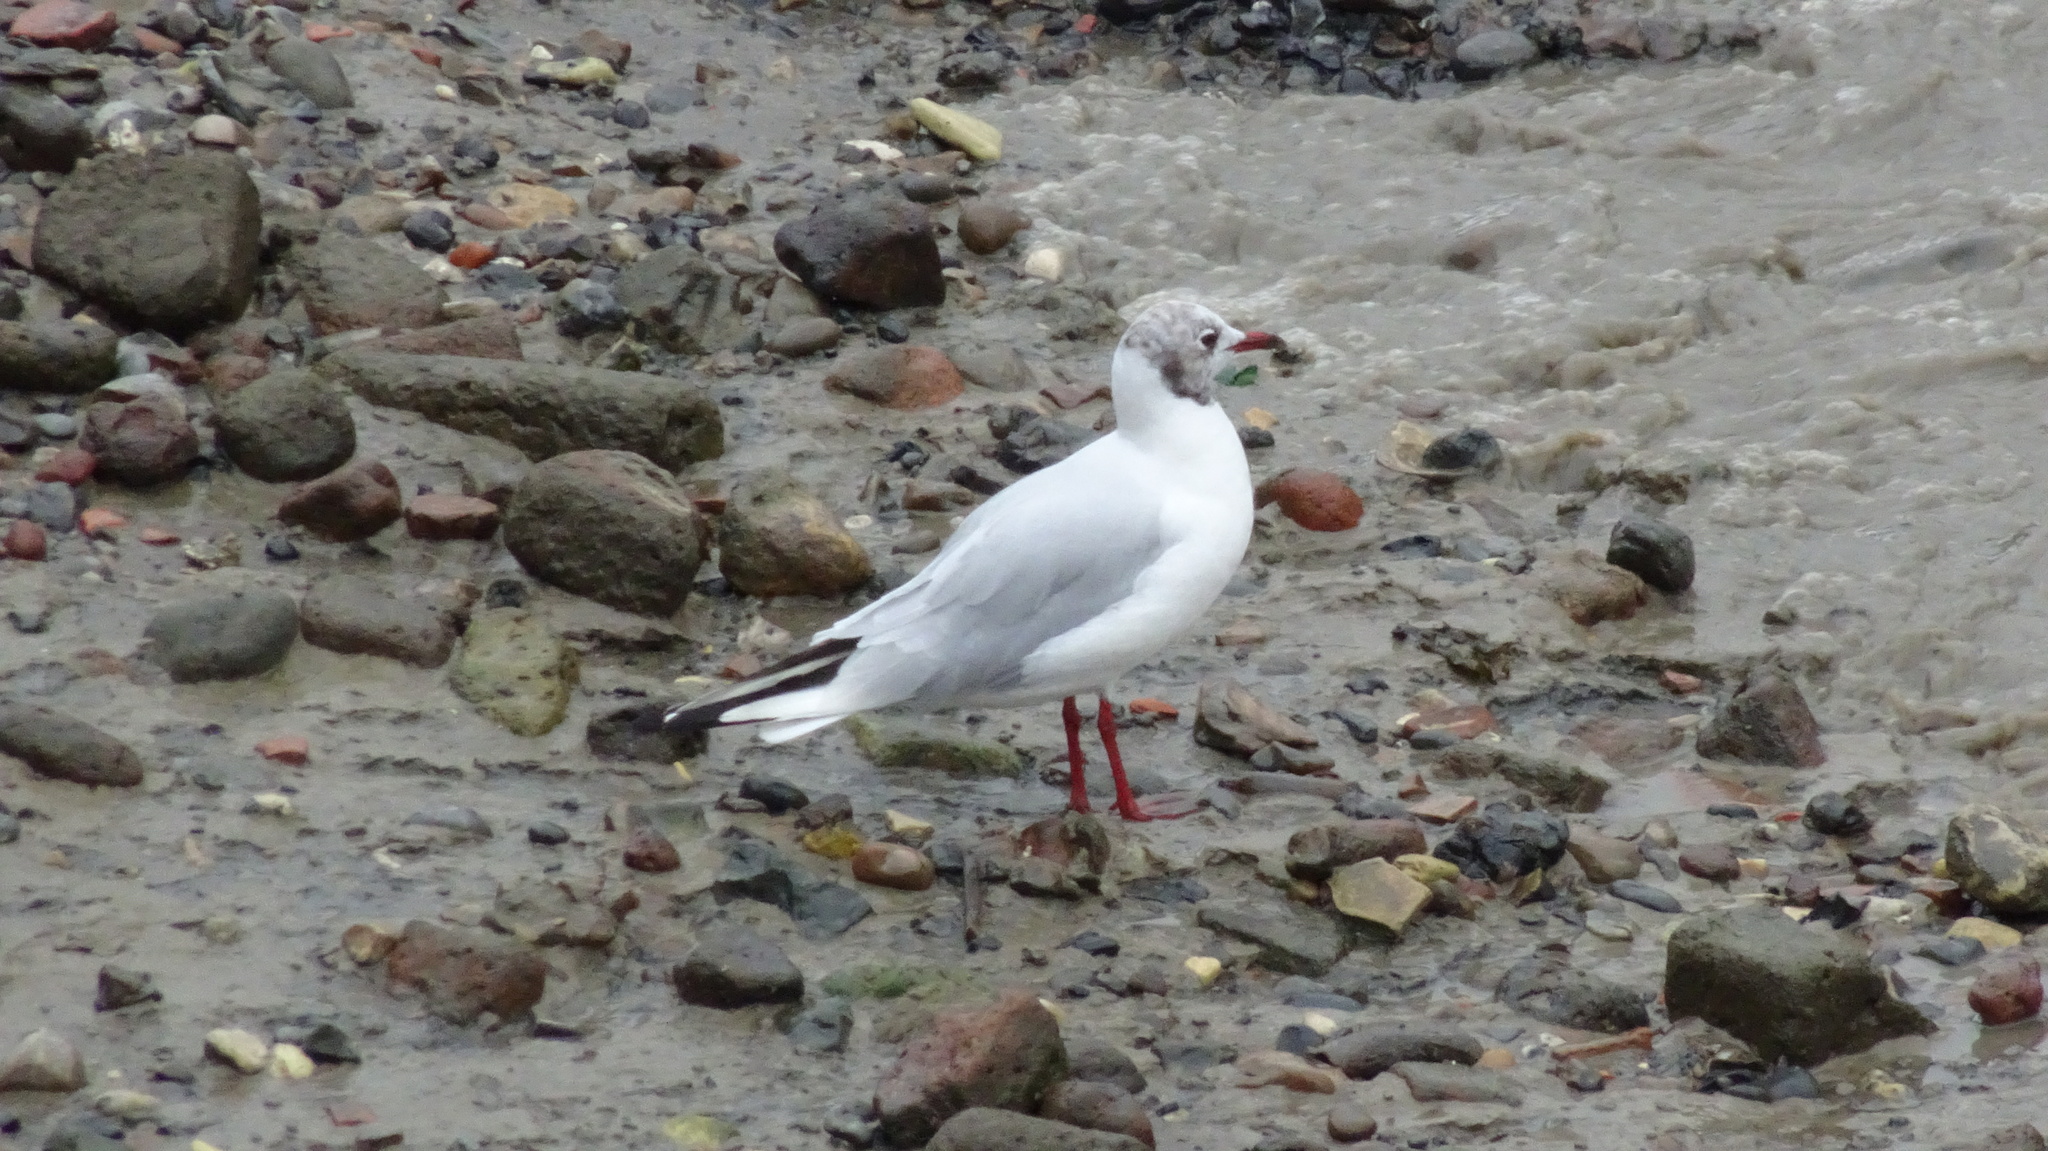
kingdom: Animalia
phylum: Chordata
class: Aves
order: Charadriiformes
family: Laridae
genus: Chroicocephalus
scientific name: Chroicocephalus ridibundus
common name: Black-headed gull
